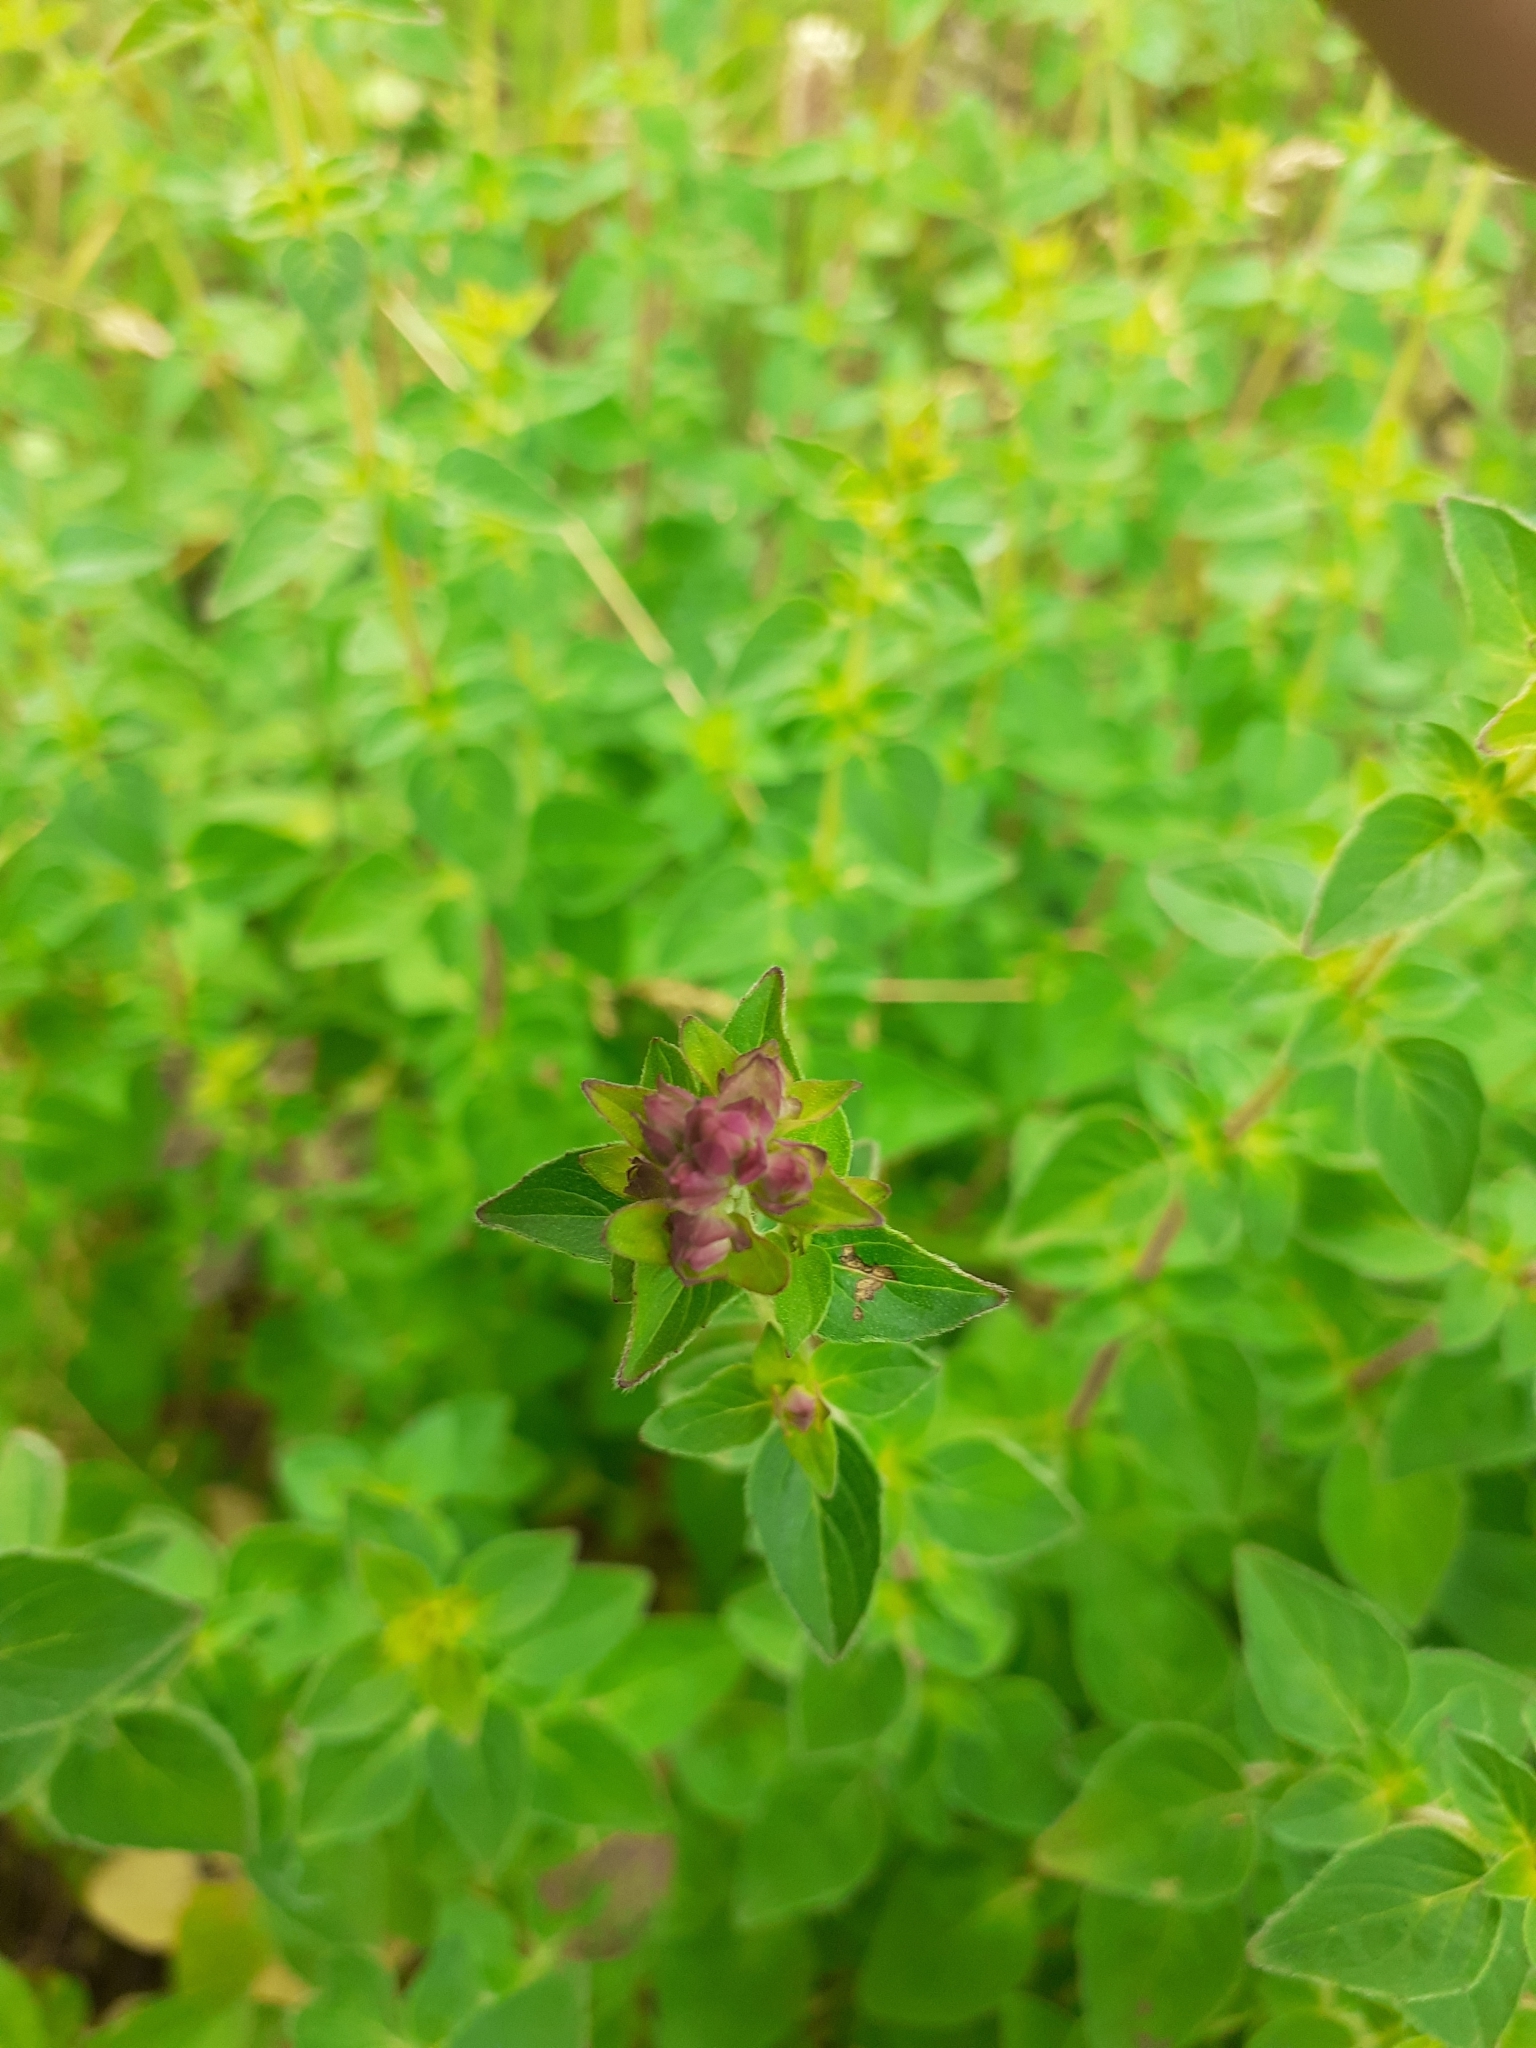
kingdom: Plantae
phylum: Tracheophyta
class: Magnoliopsida
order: Lamiales
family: Lamiaceae
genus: Origanum
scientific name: Origanum vulgare
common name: Wild marjoram
